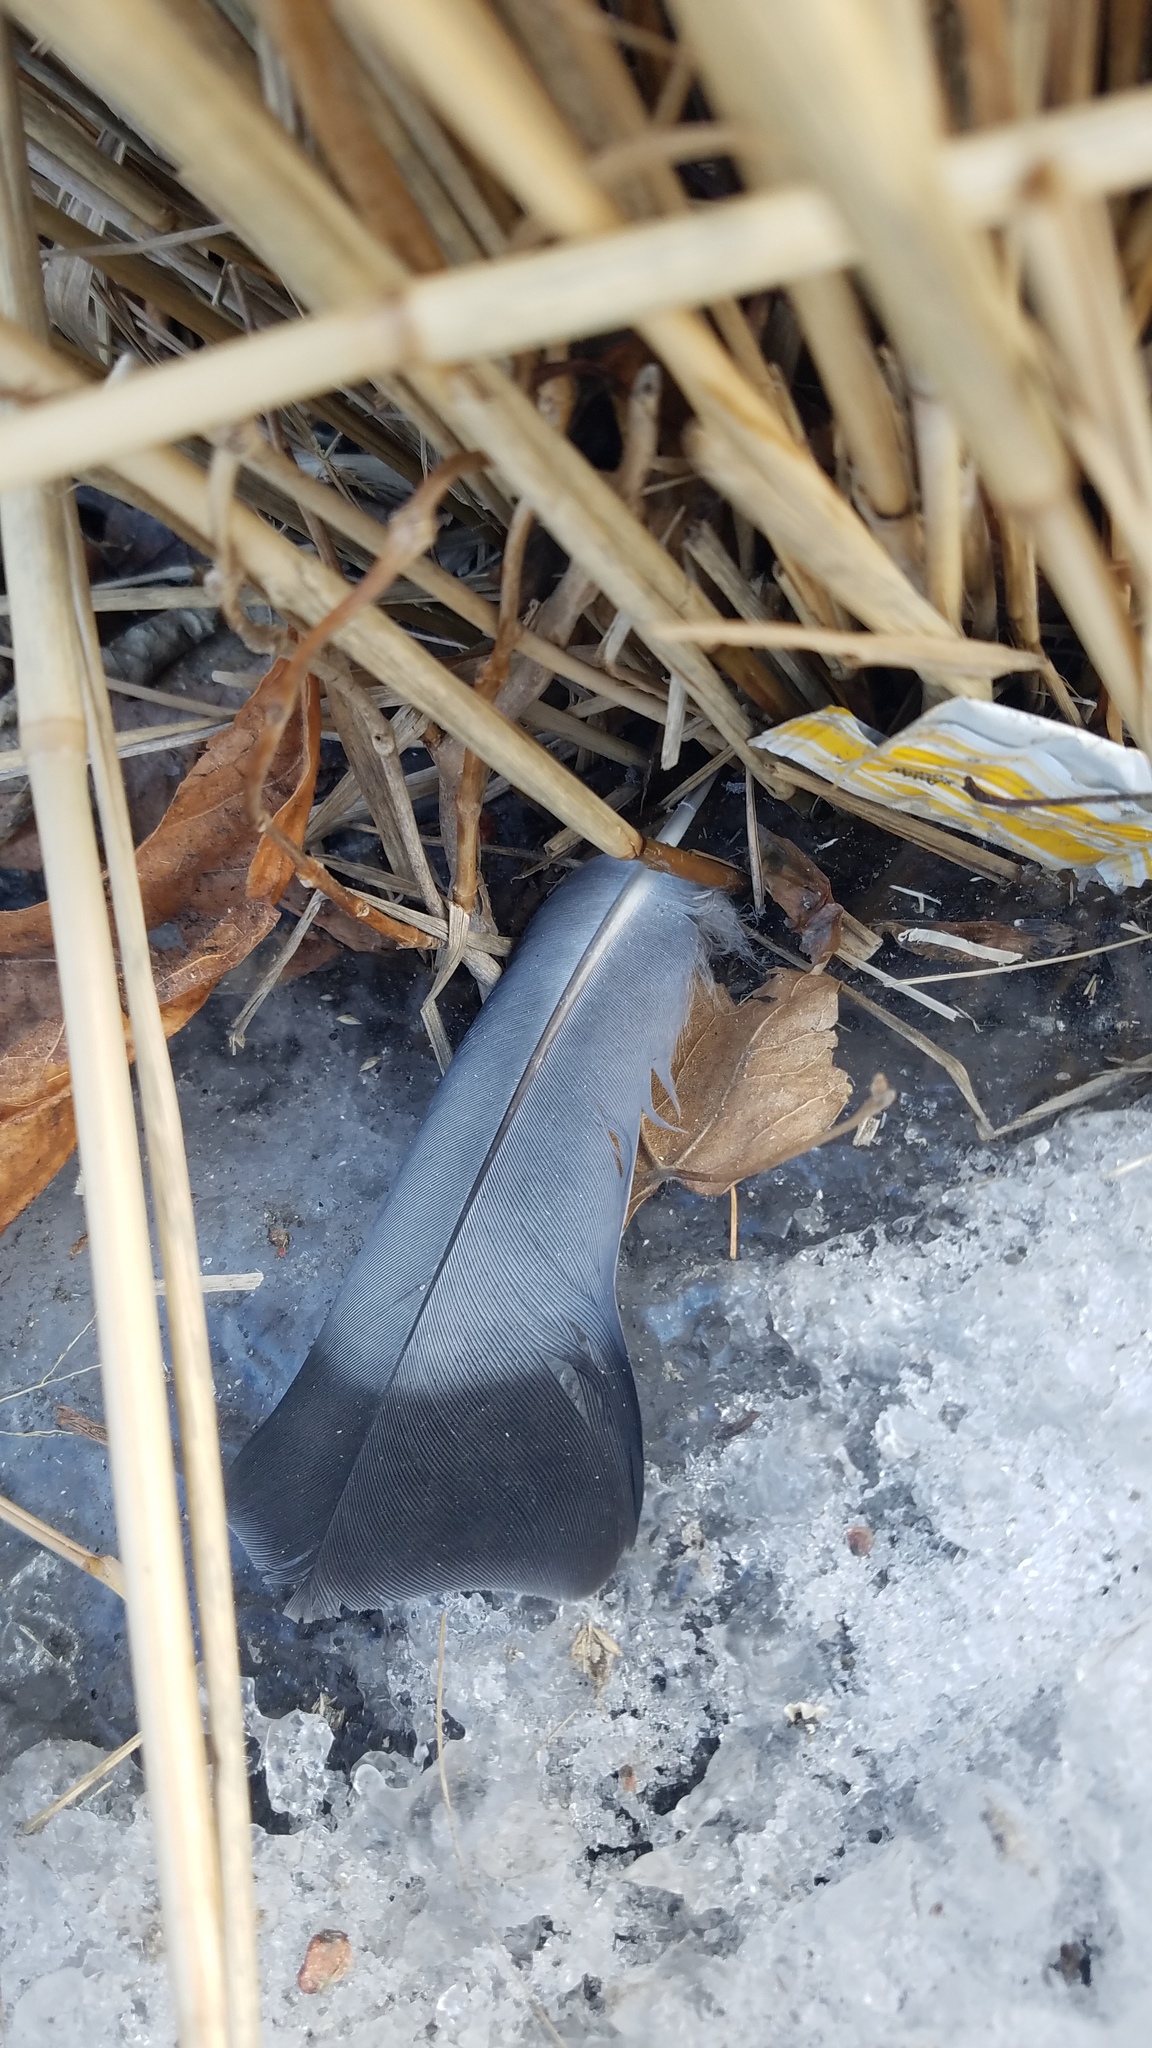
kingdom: Animalia
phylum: Chordata
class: Aves
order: Columbiformes
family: Columbidae
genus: Columba
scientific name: Columba livia
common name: Rock pigeon
